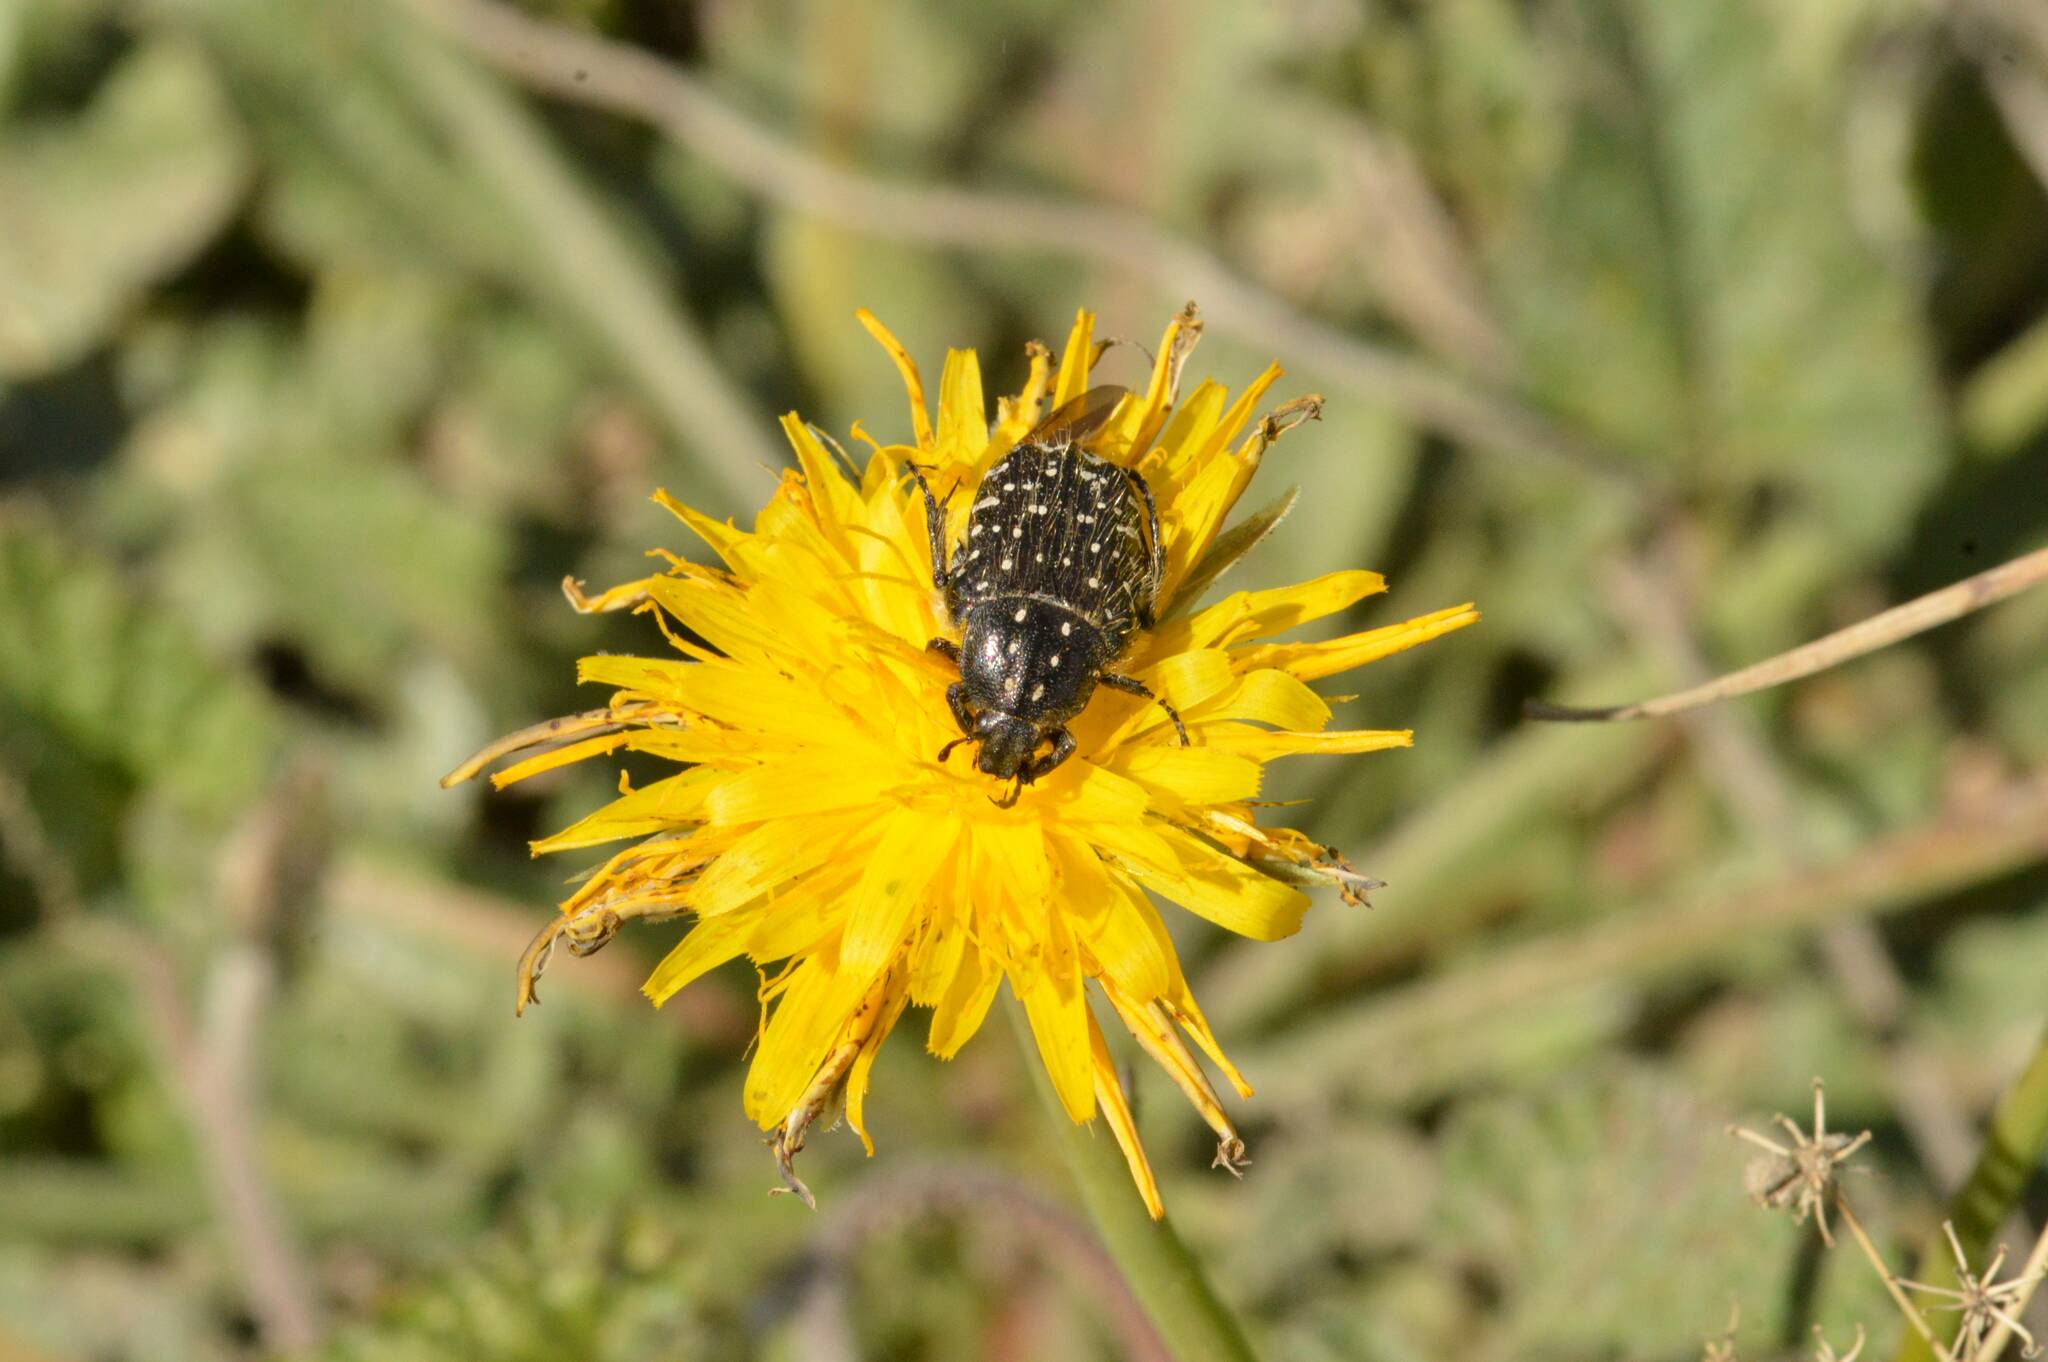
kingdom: Animalia
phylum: Arthropoda
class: Insecta
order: Coleoptera
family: Scarabaeidae
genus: Oxythyrea
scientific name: Oxythyrea funesta
